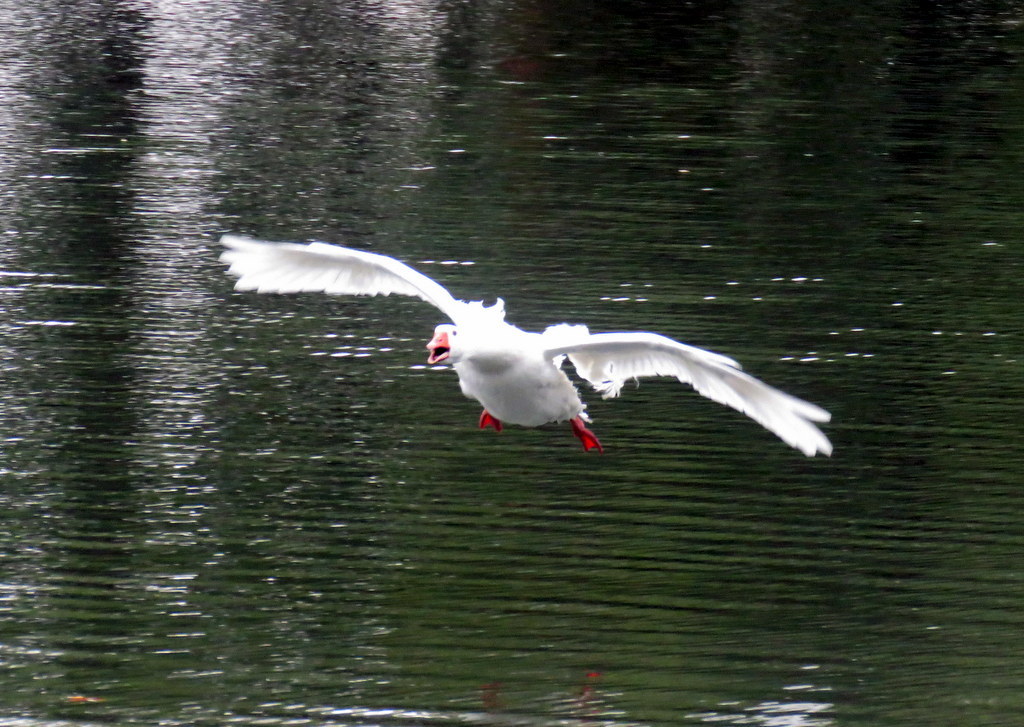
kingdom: Animalia
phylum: Chordata
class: Aves
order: Anseriformes
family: Anatidae
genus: Anser
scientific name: Anser anser
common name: Greylag goose
